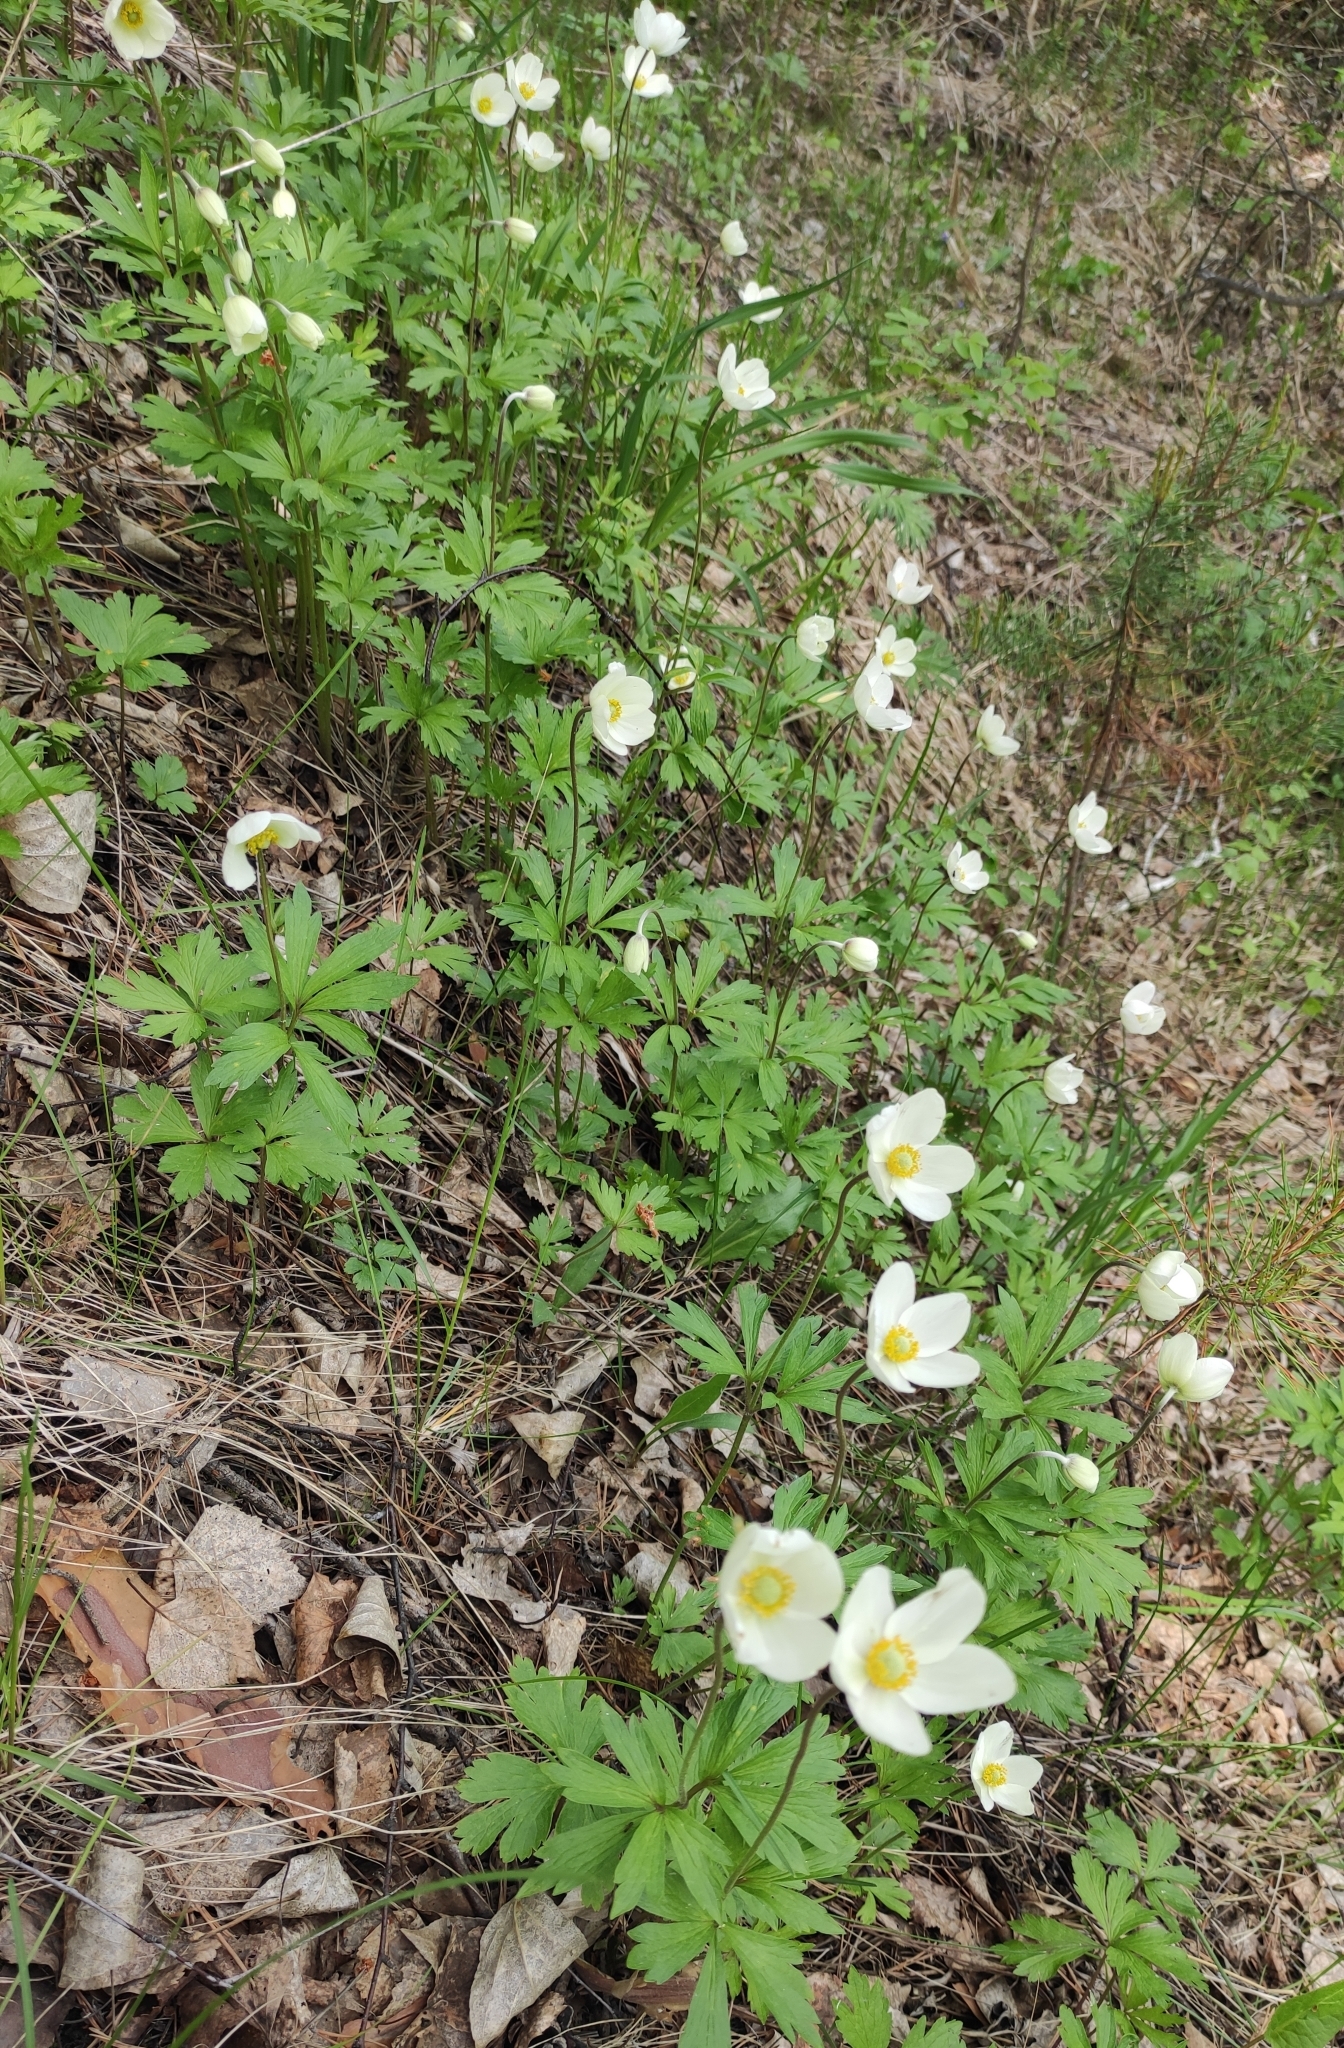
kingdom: Plantae
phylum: Tracheophyta
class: Magnoliopsida
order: Ranunculales
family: Ranunculaceae
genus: Anemone
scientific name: Anemone sylvestris
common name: Snowdrop anemone
